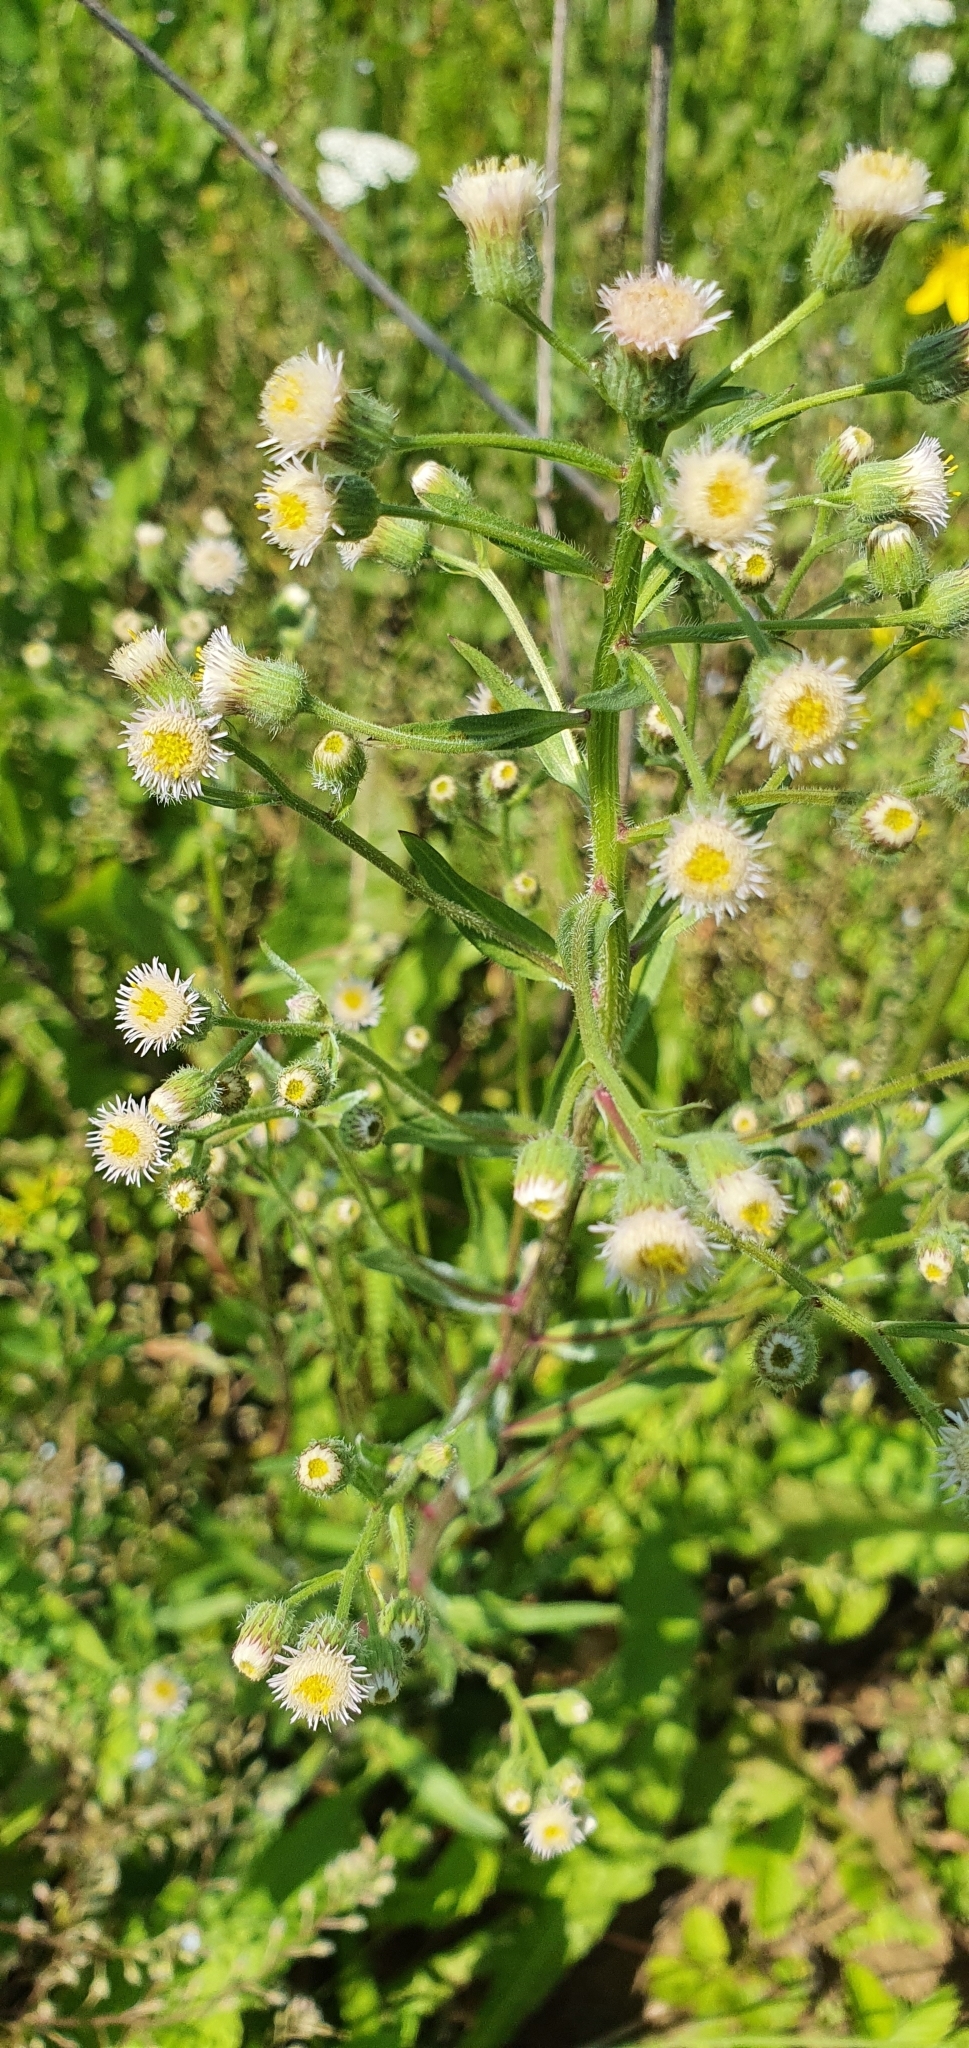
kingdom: Plantae
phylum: Tracheophyta
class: Magnoliopsida
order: Asterales
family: Asteraceae
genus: Erigeron
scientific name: Erigeron acris
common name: Blue fleabane
